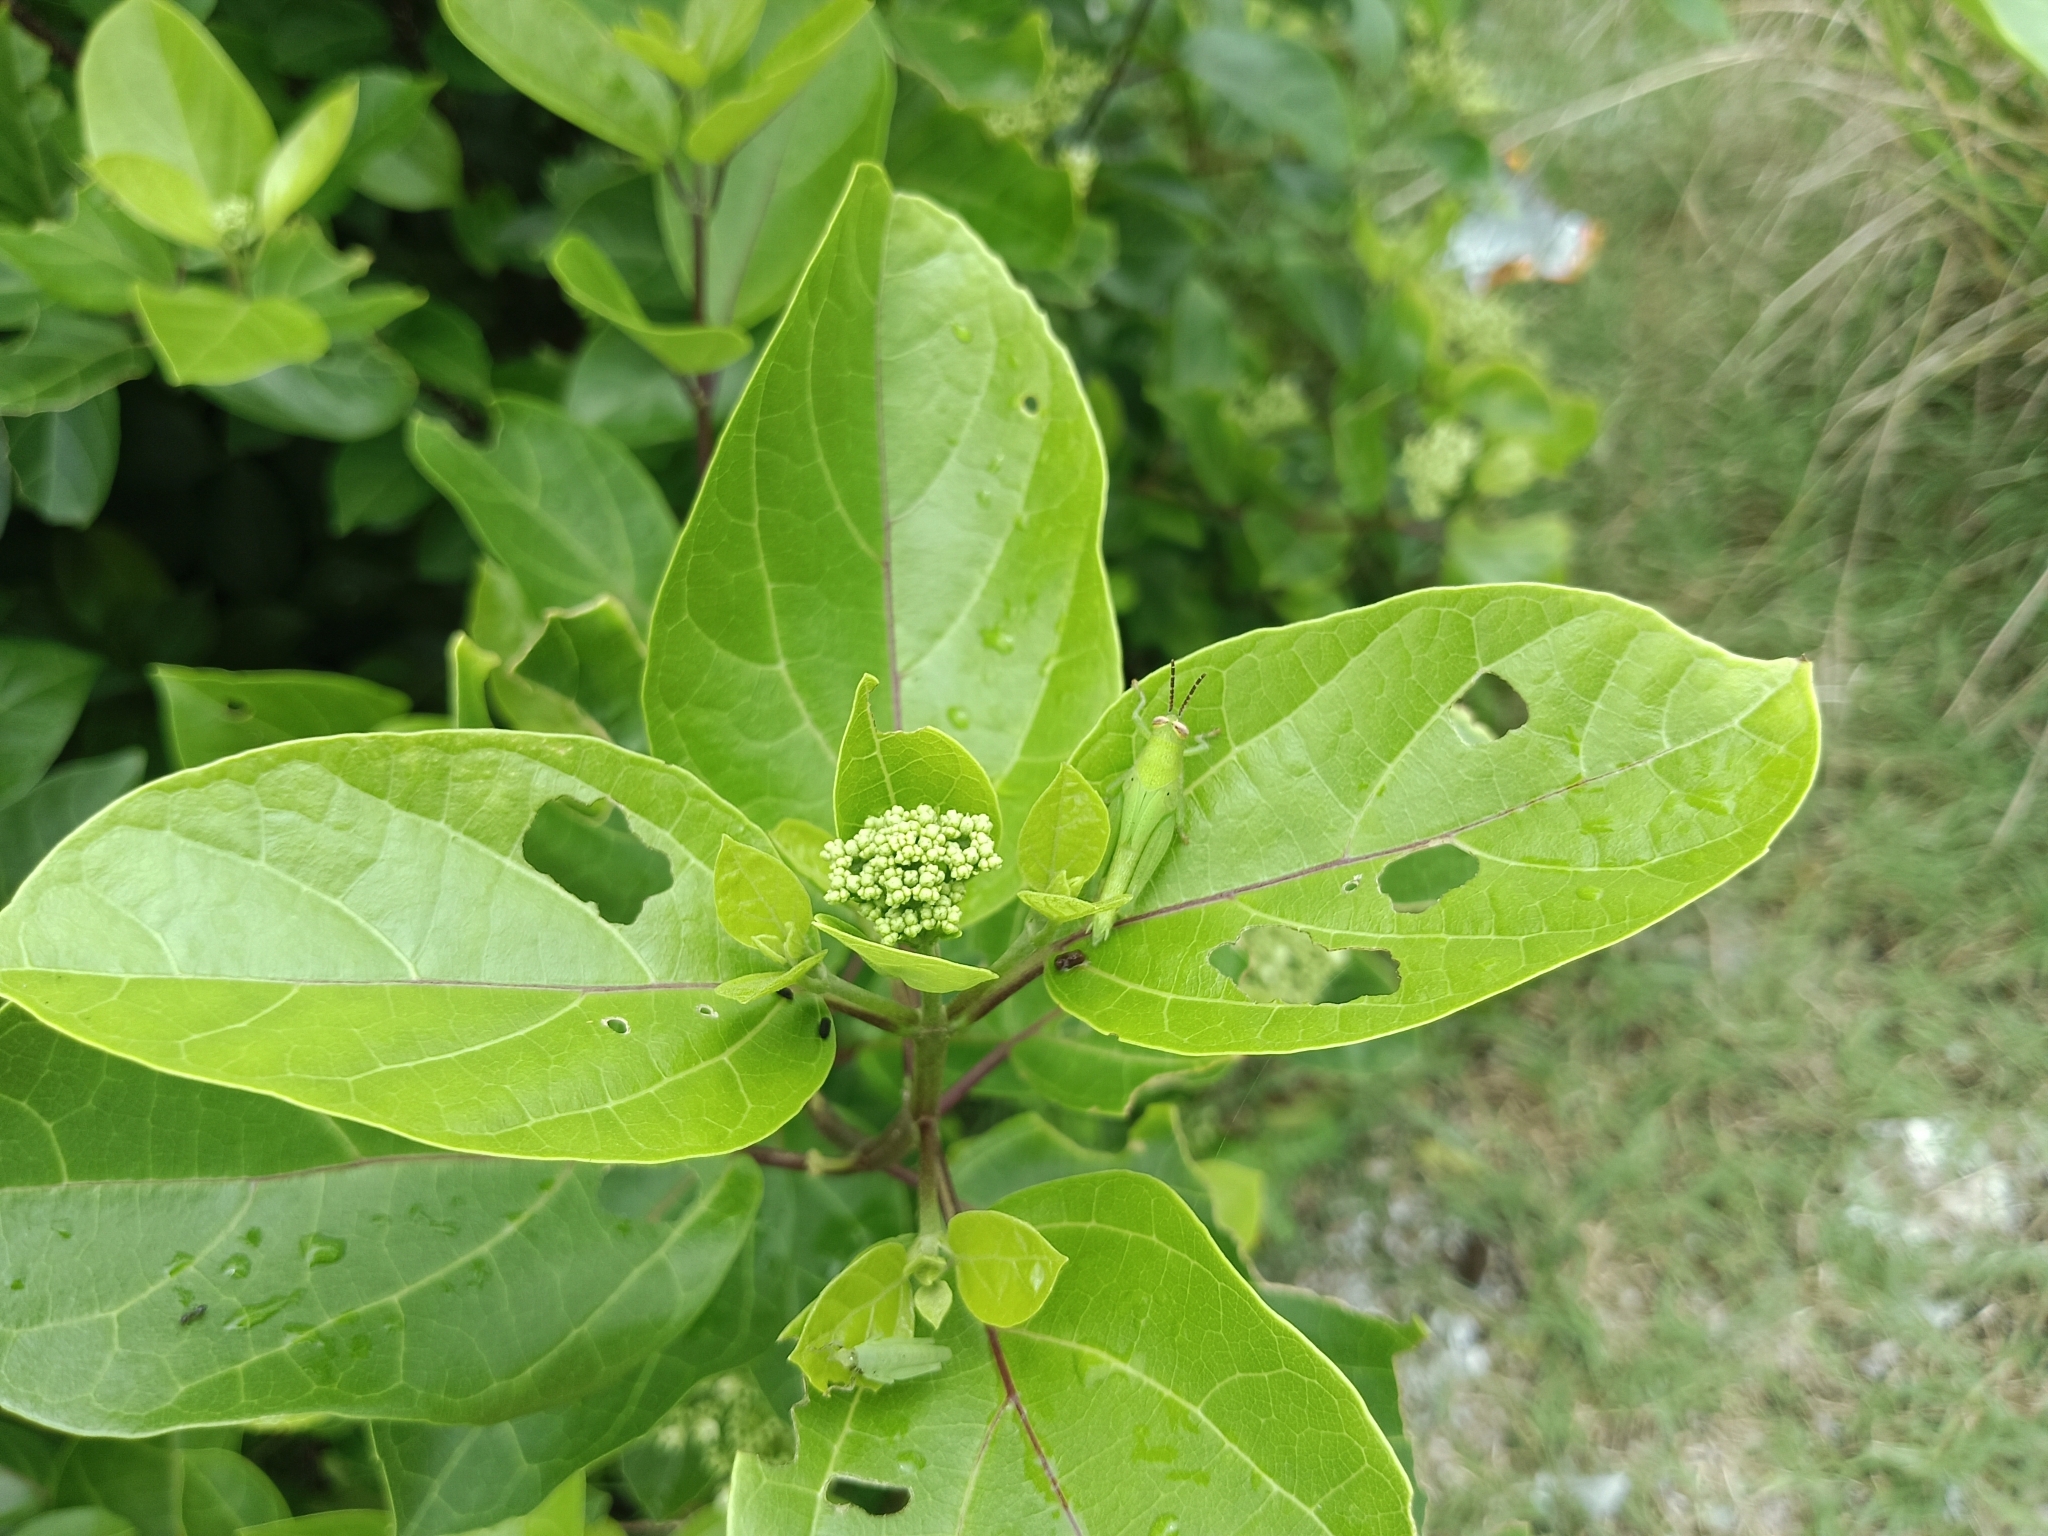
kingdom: Plantae
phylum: Tracheophyta
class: Magnoliopsida
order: Lamiales
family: Lamiaceae
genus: Premna
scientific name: Premna serratifolia
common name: Bastard guelder
